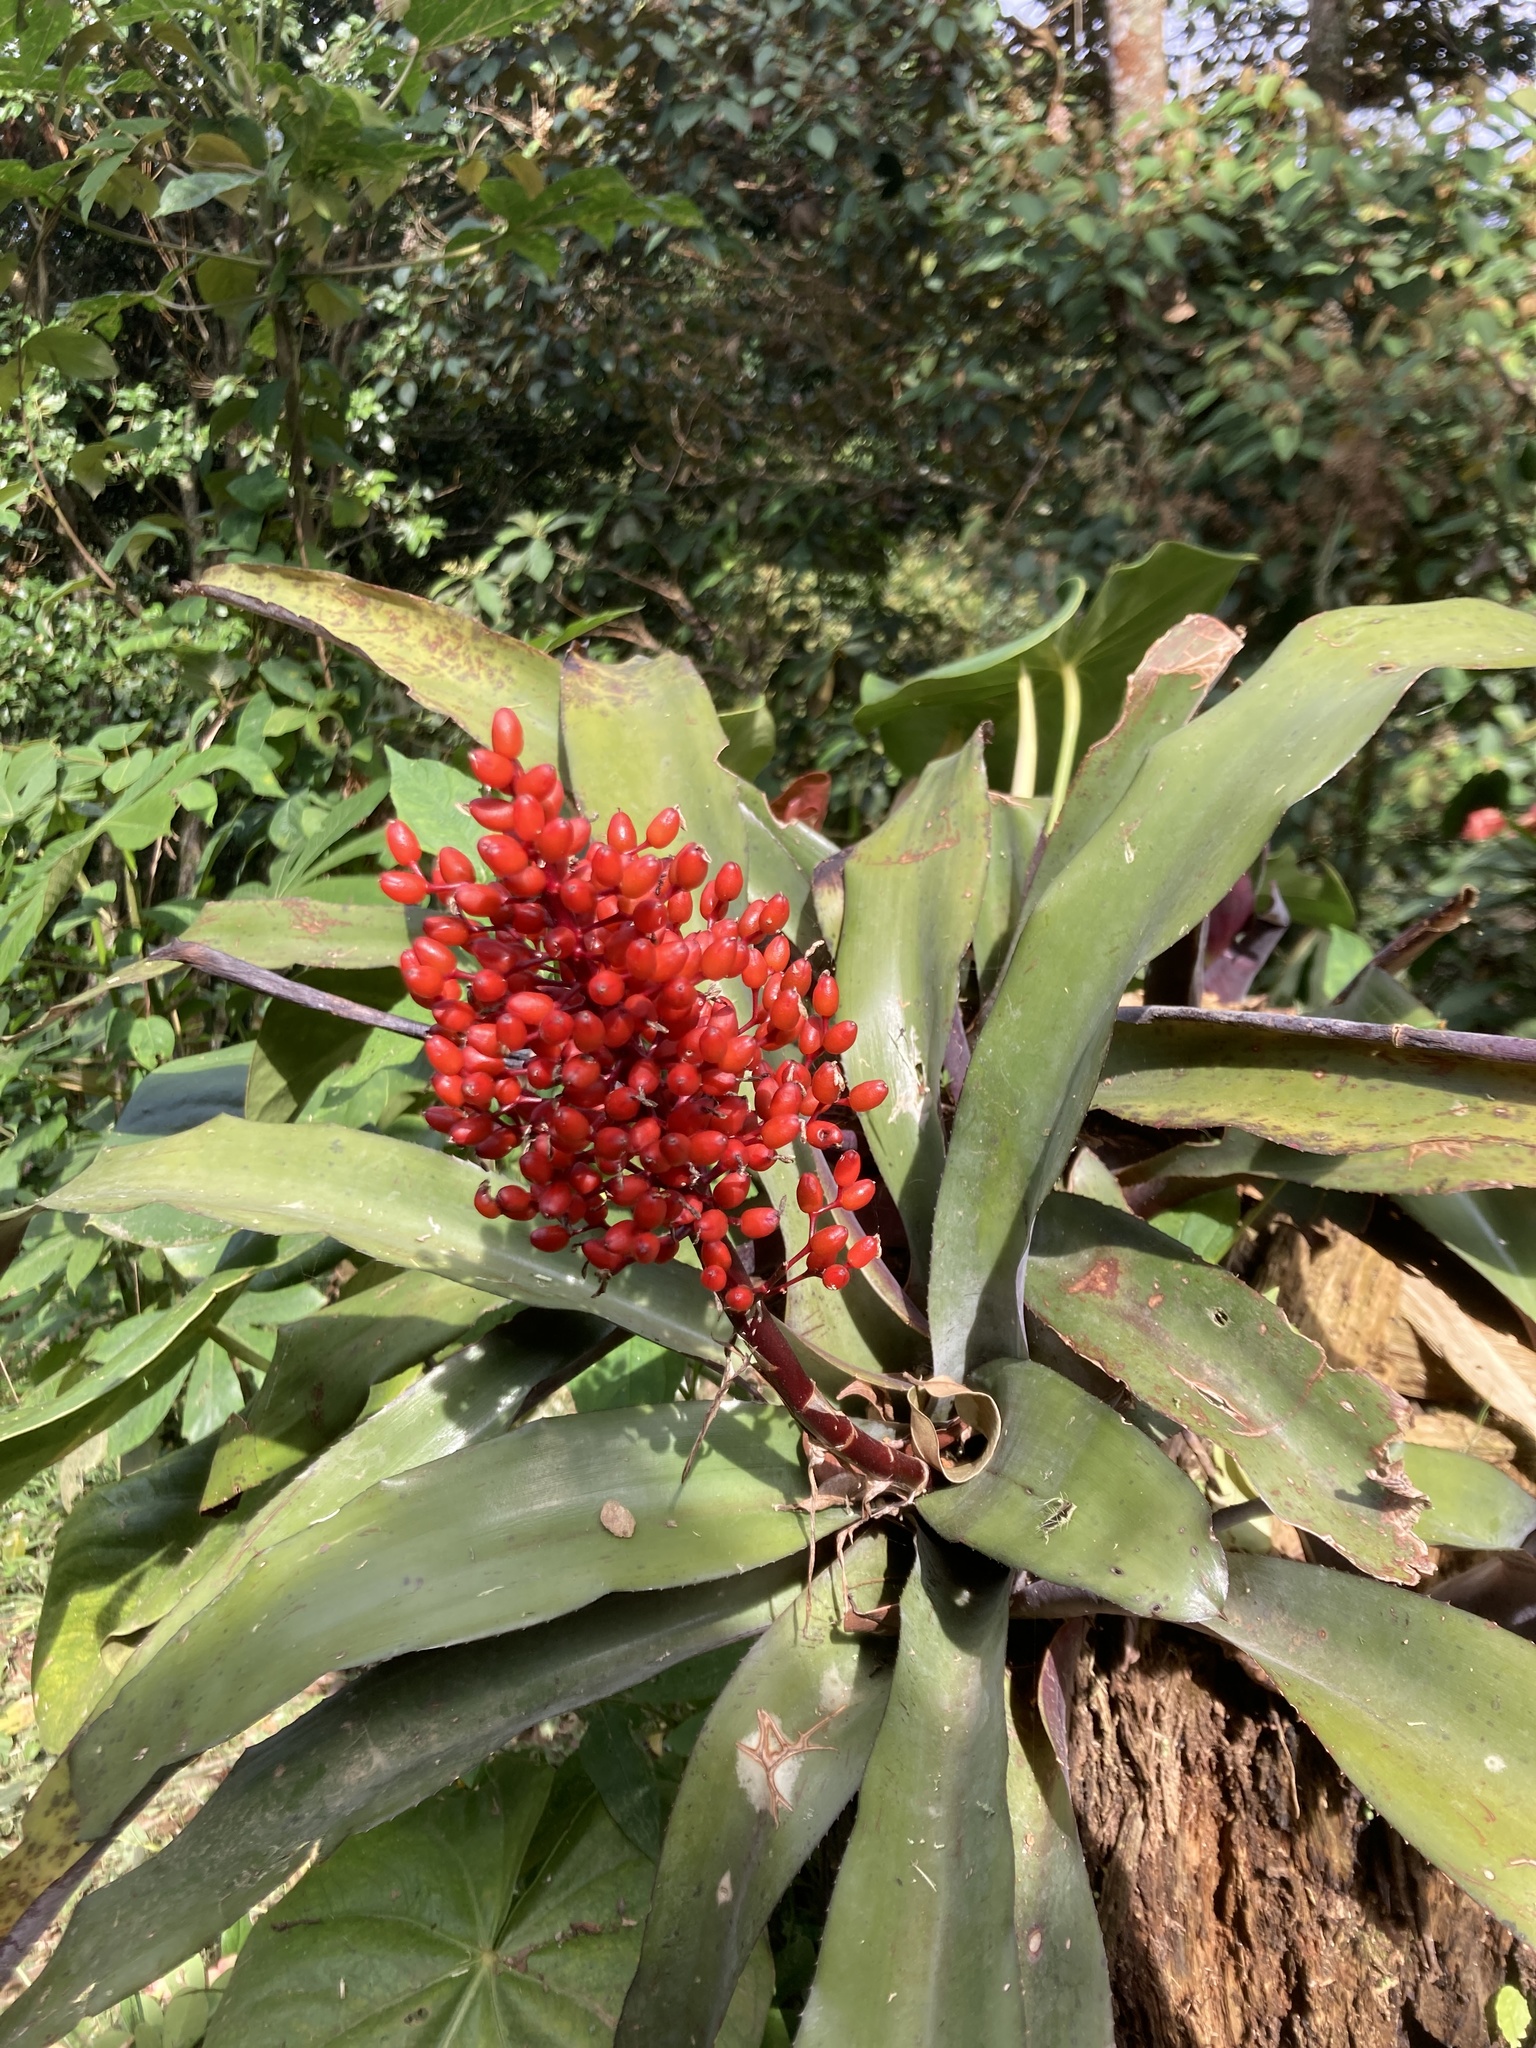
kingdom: Plantae
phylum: Tracheophyta
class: Liliopsida
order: Poales
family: Bromeliaceae
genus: Aechmea
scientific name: Aechmea miniata
